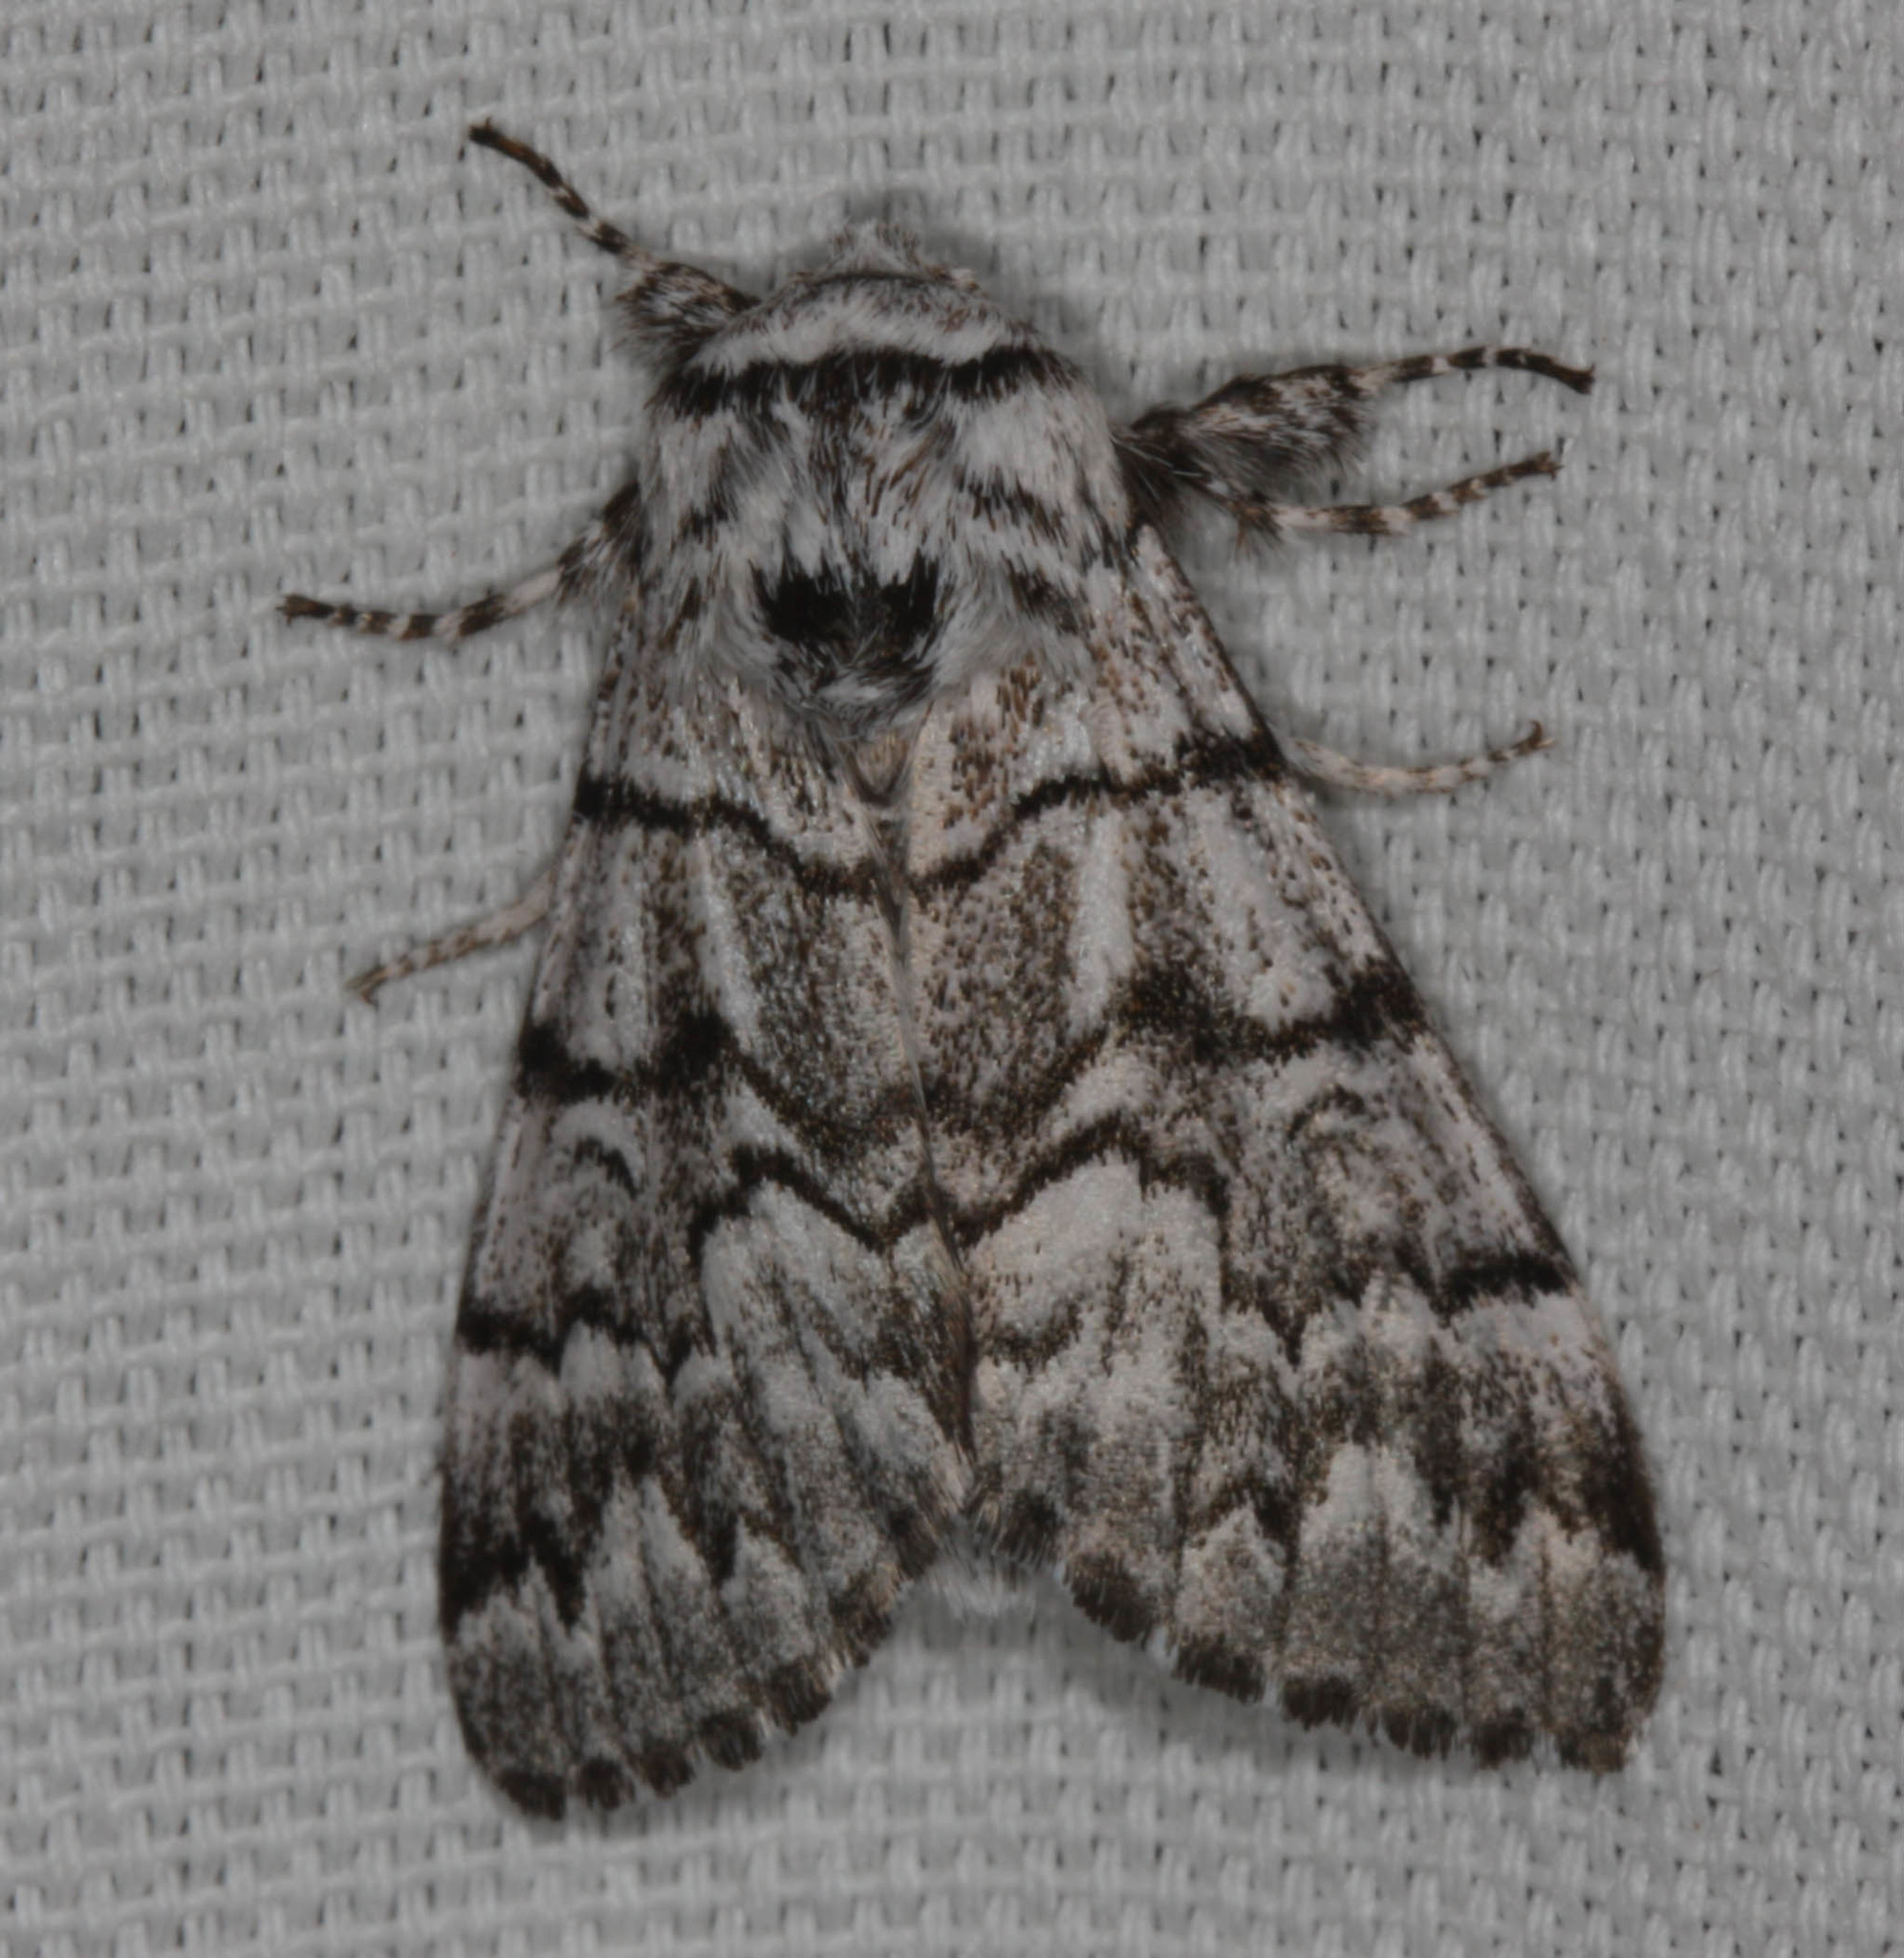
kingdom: Animalia
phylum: Arthropoda
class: Insecta
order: Lepidoptera
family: Noctuidae
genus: Panthea
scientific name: Panthea virginarius
